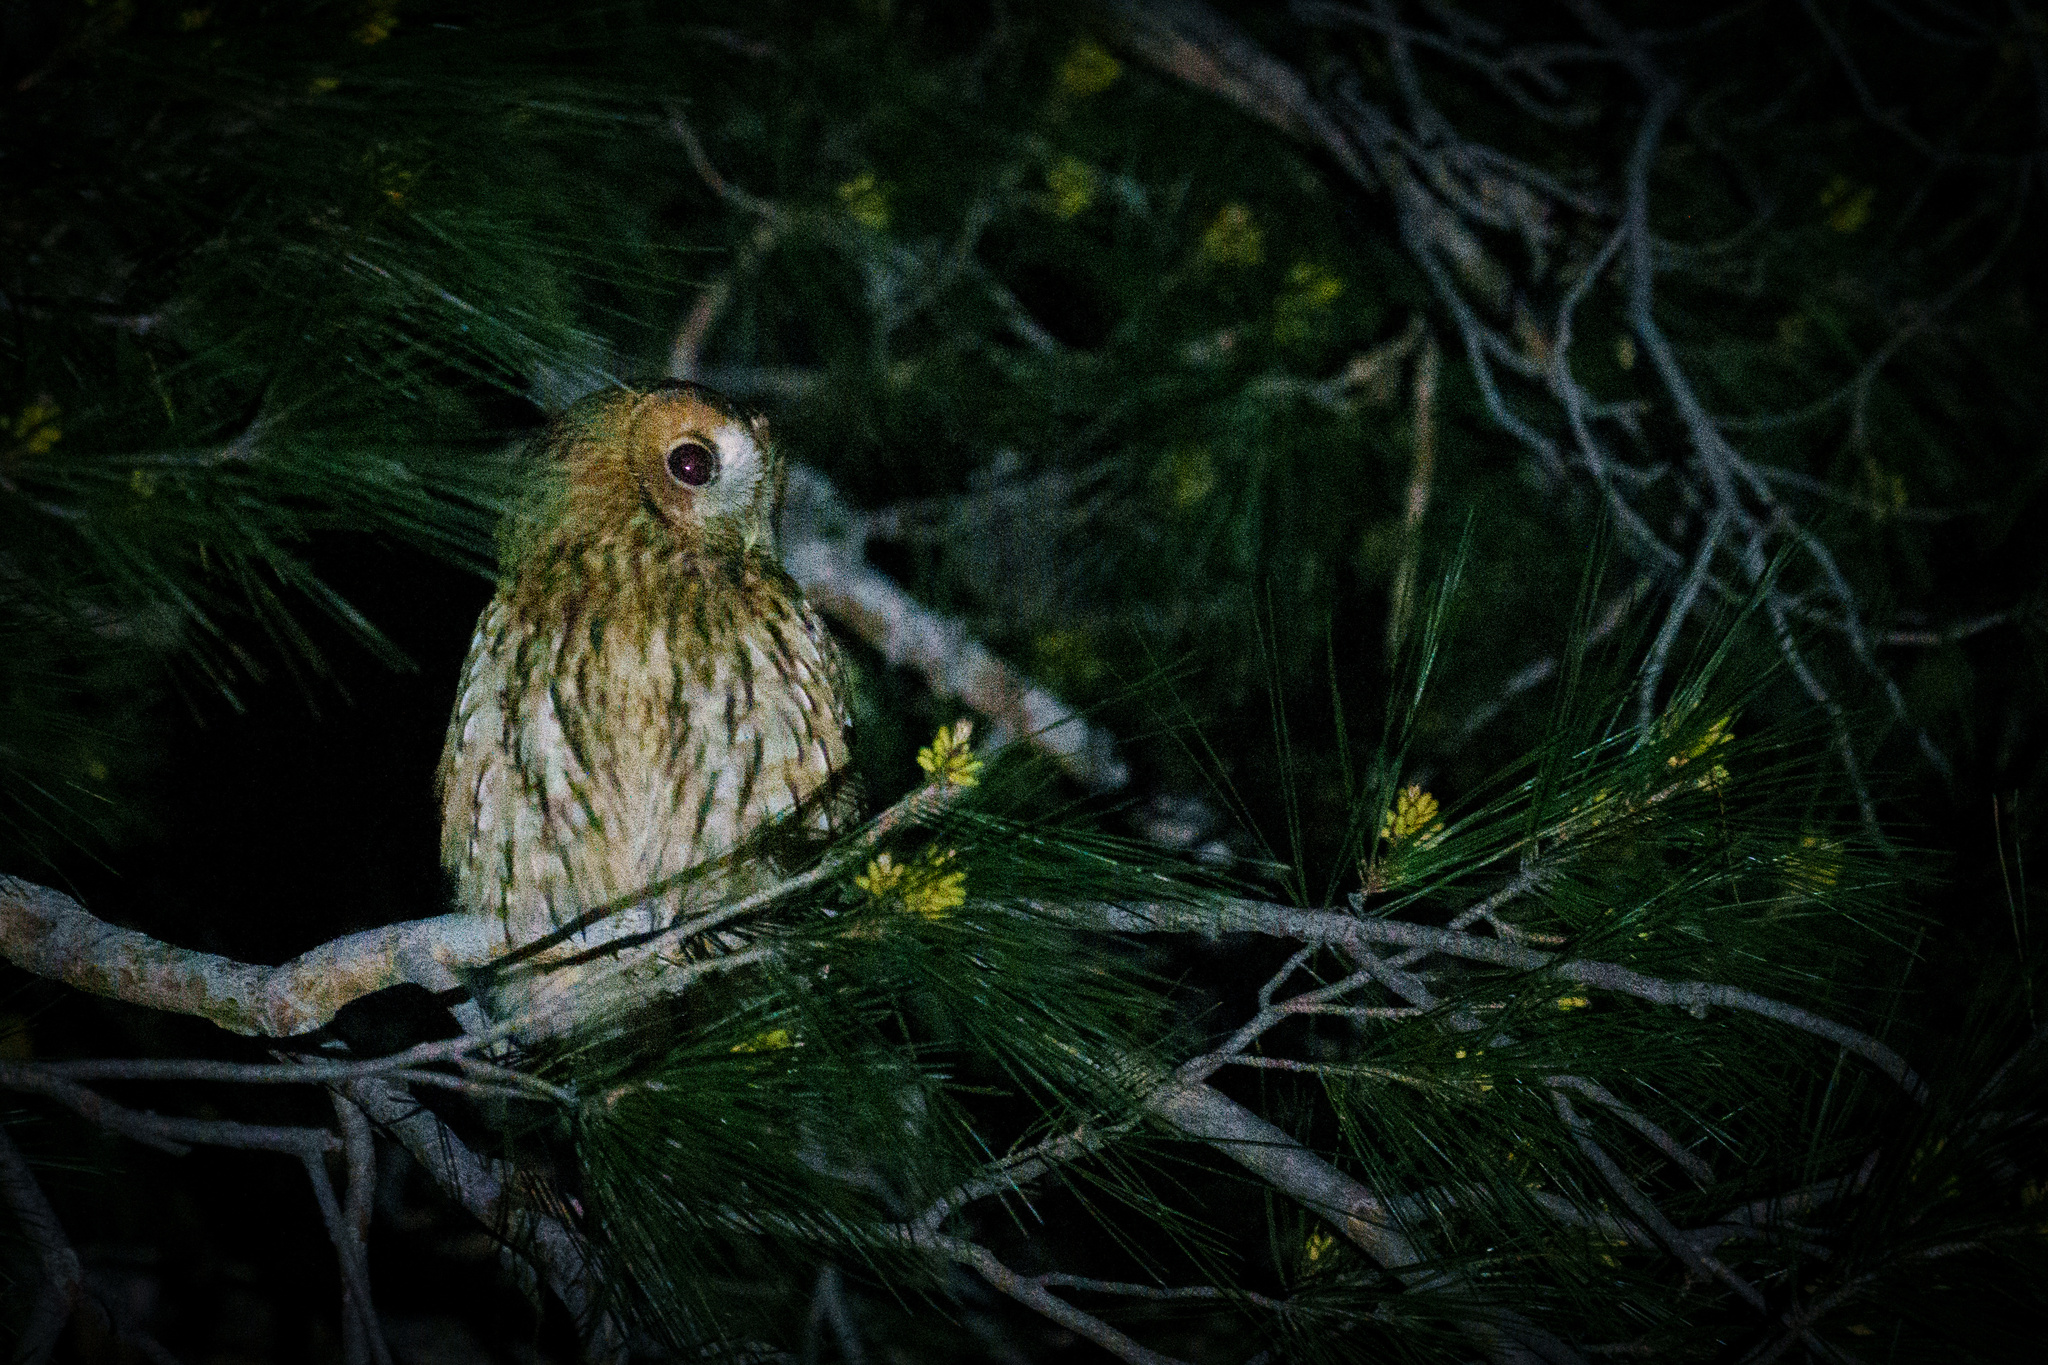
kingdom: Animalia
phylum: Chordata
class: Aves
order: Strigiformes
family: Strigidae
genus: Strix
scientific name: Strix aluco
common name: Tawny owl
